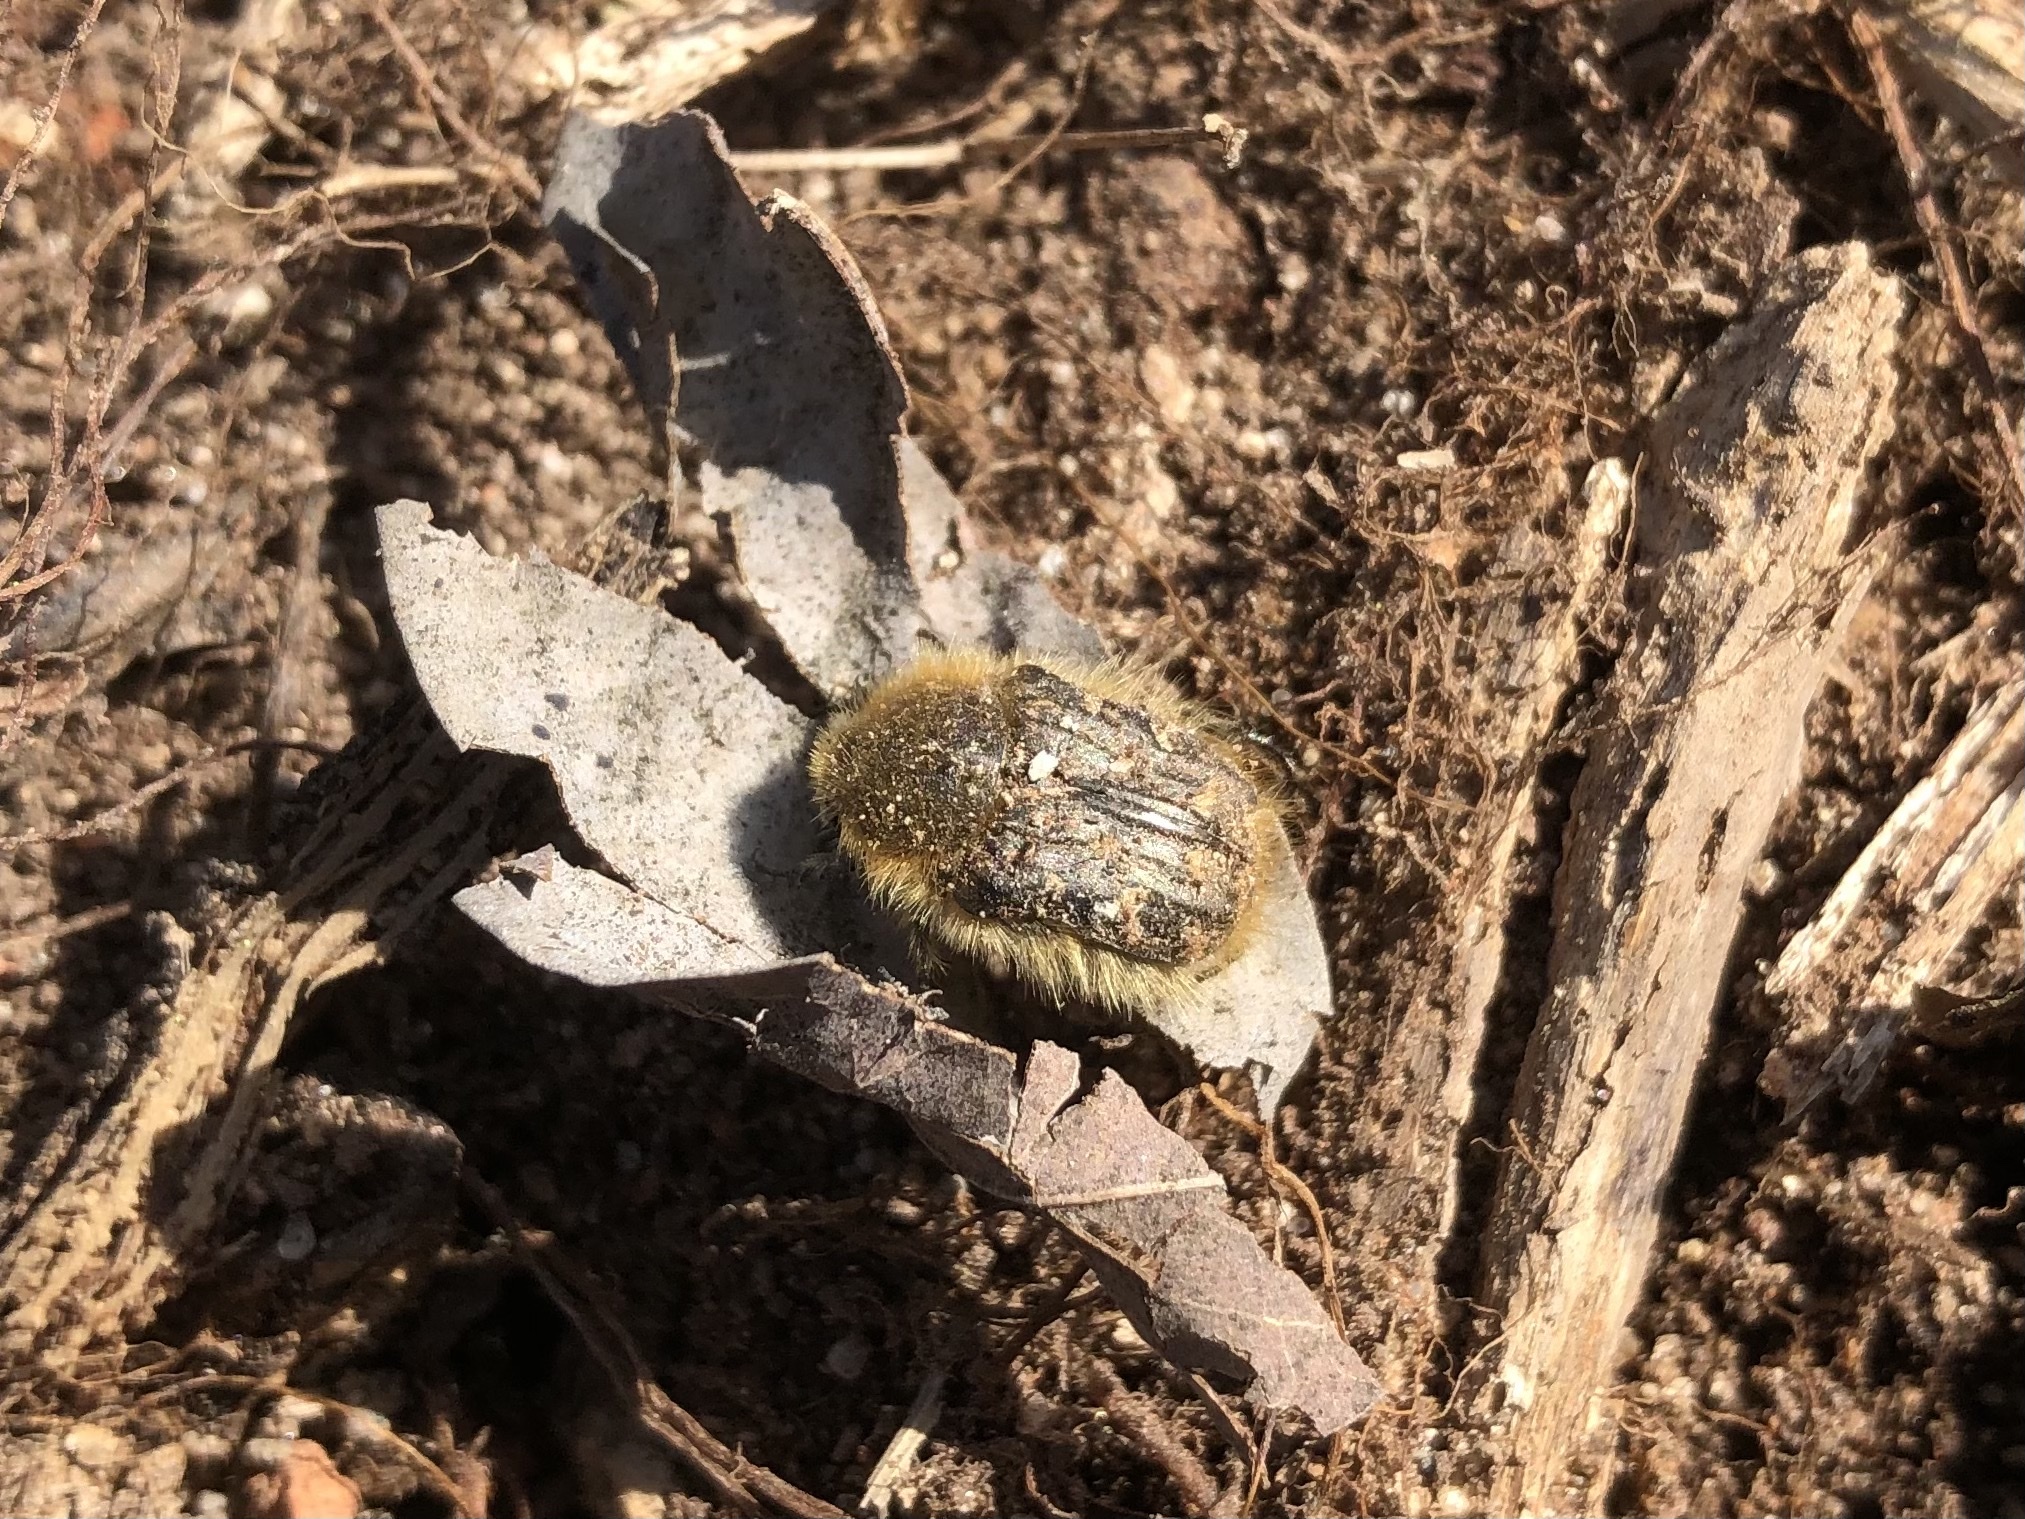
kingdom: Animalia
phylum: Arthropoda
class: Insecta
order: Coleoptera
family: Scarabaeidae
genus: Tropinota
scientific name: Tropinota hirta
